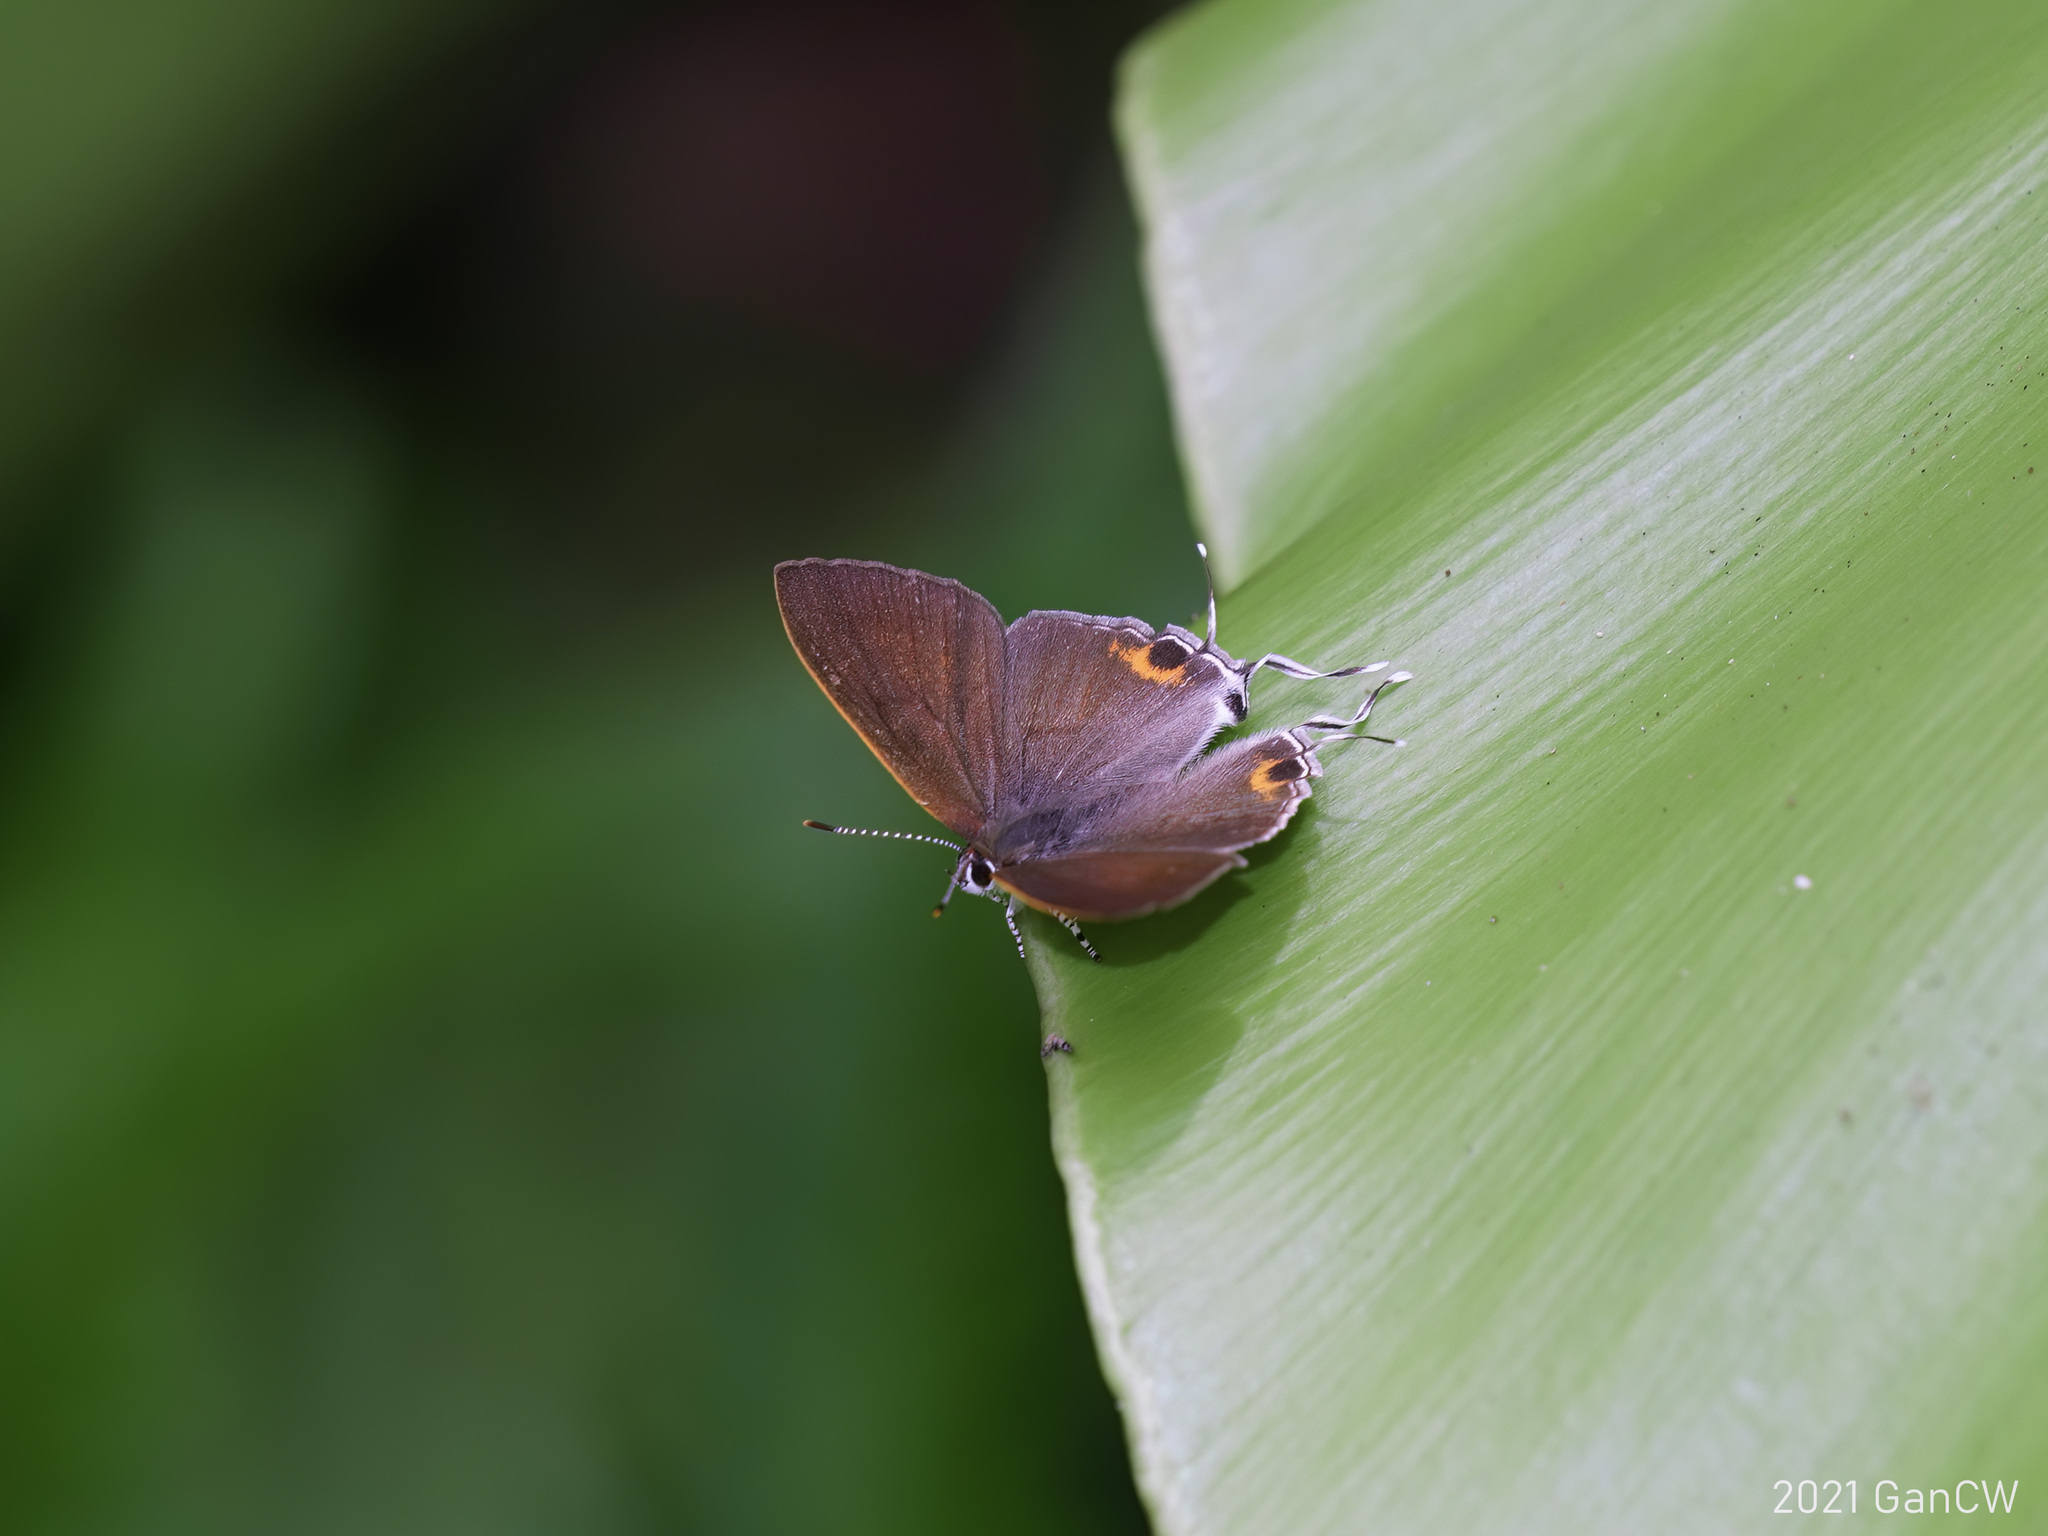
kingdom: Animalia
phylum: Arthropoda
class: Insecta
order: Lepidoptera
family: Lycaenidae
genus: Hypolycaena
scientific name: Hypolycaena thecloides
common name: Dark tit
